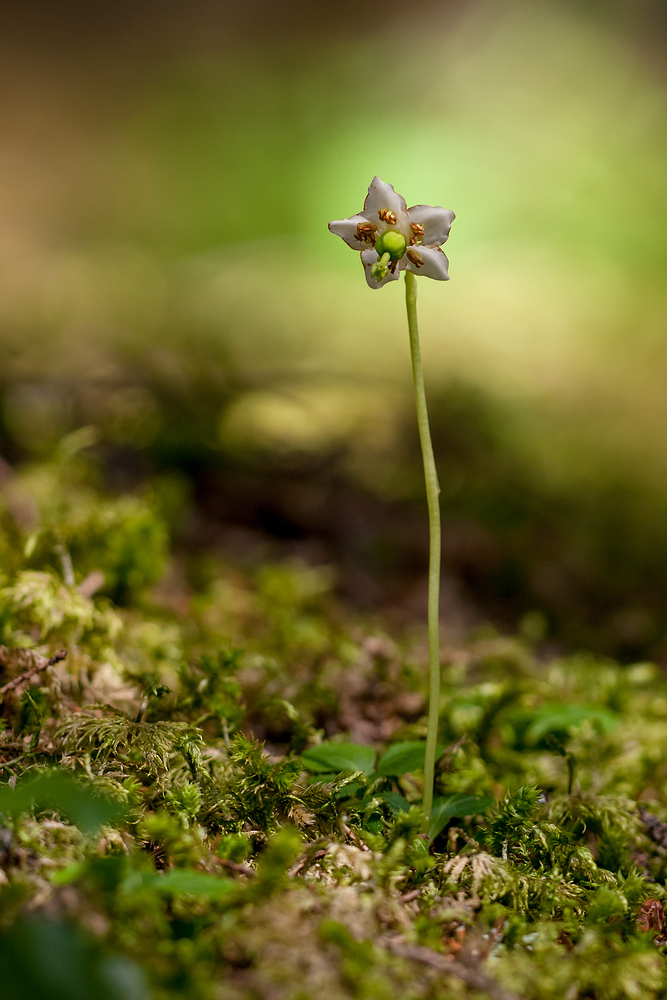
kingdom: Plantae
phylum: Tracheophyta
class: Magnoliopsida
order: Ericales
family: Ericaceae
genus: Moneses
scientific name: Moneses uniflora
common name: One-flowered wintergreen
